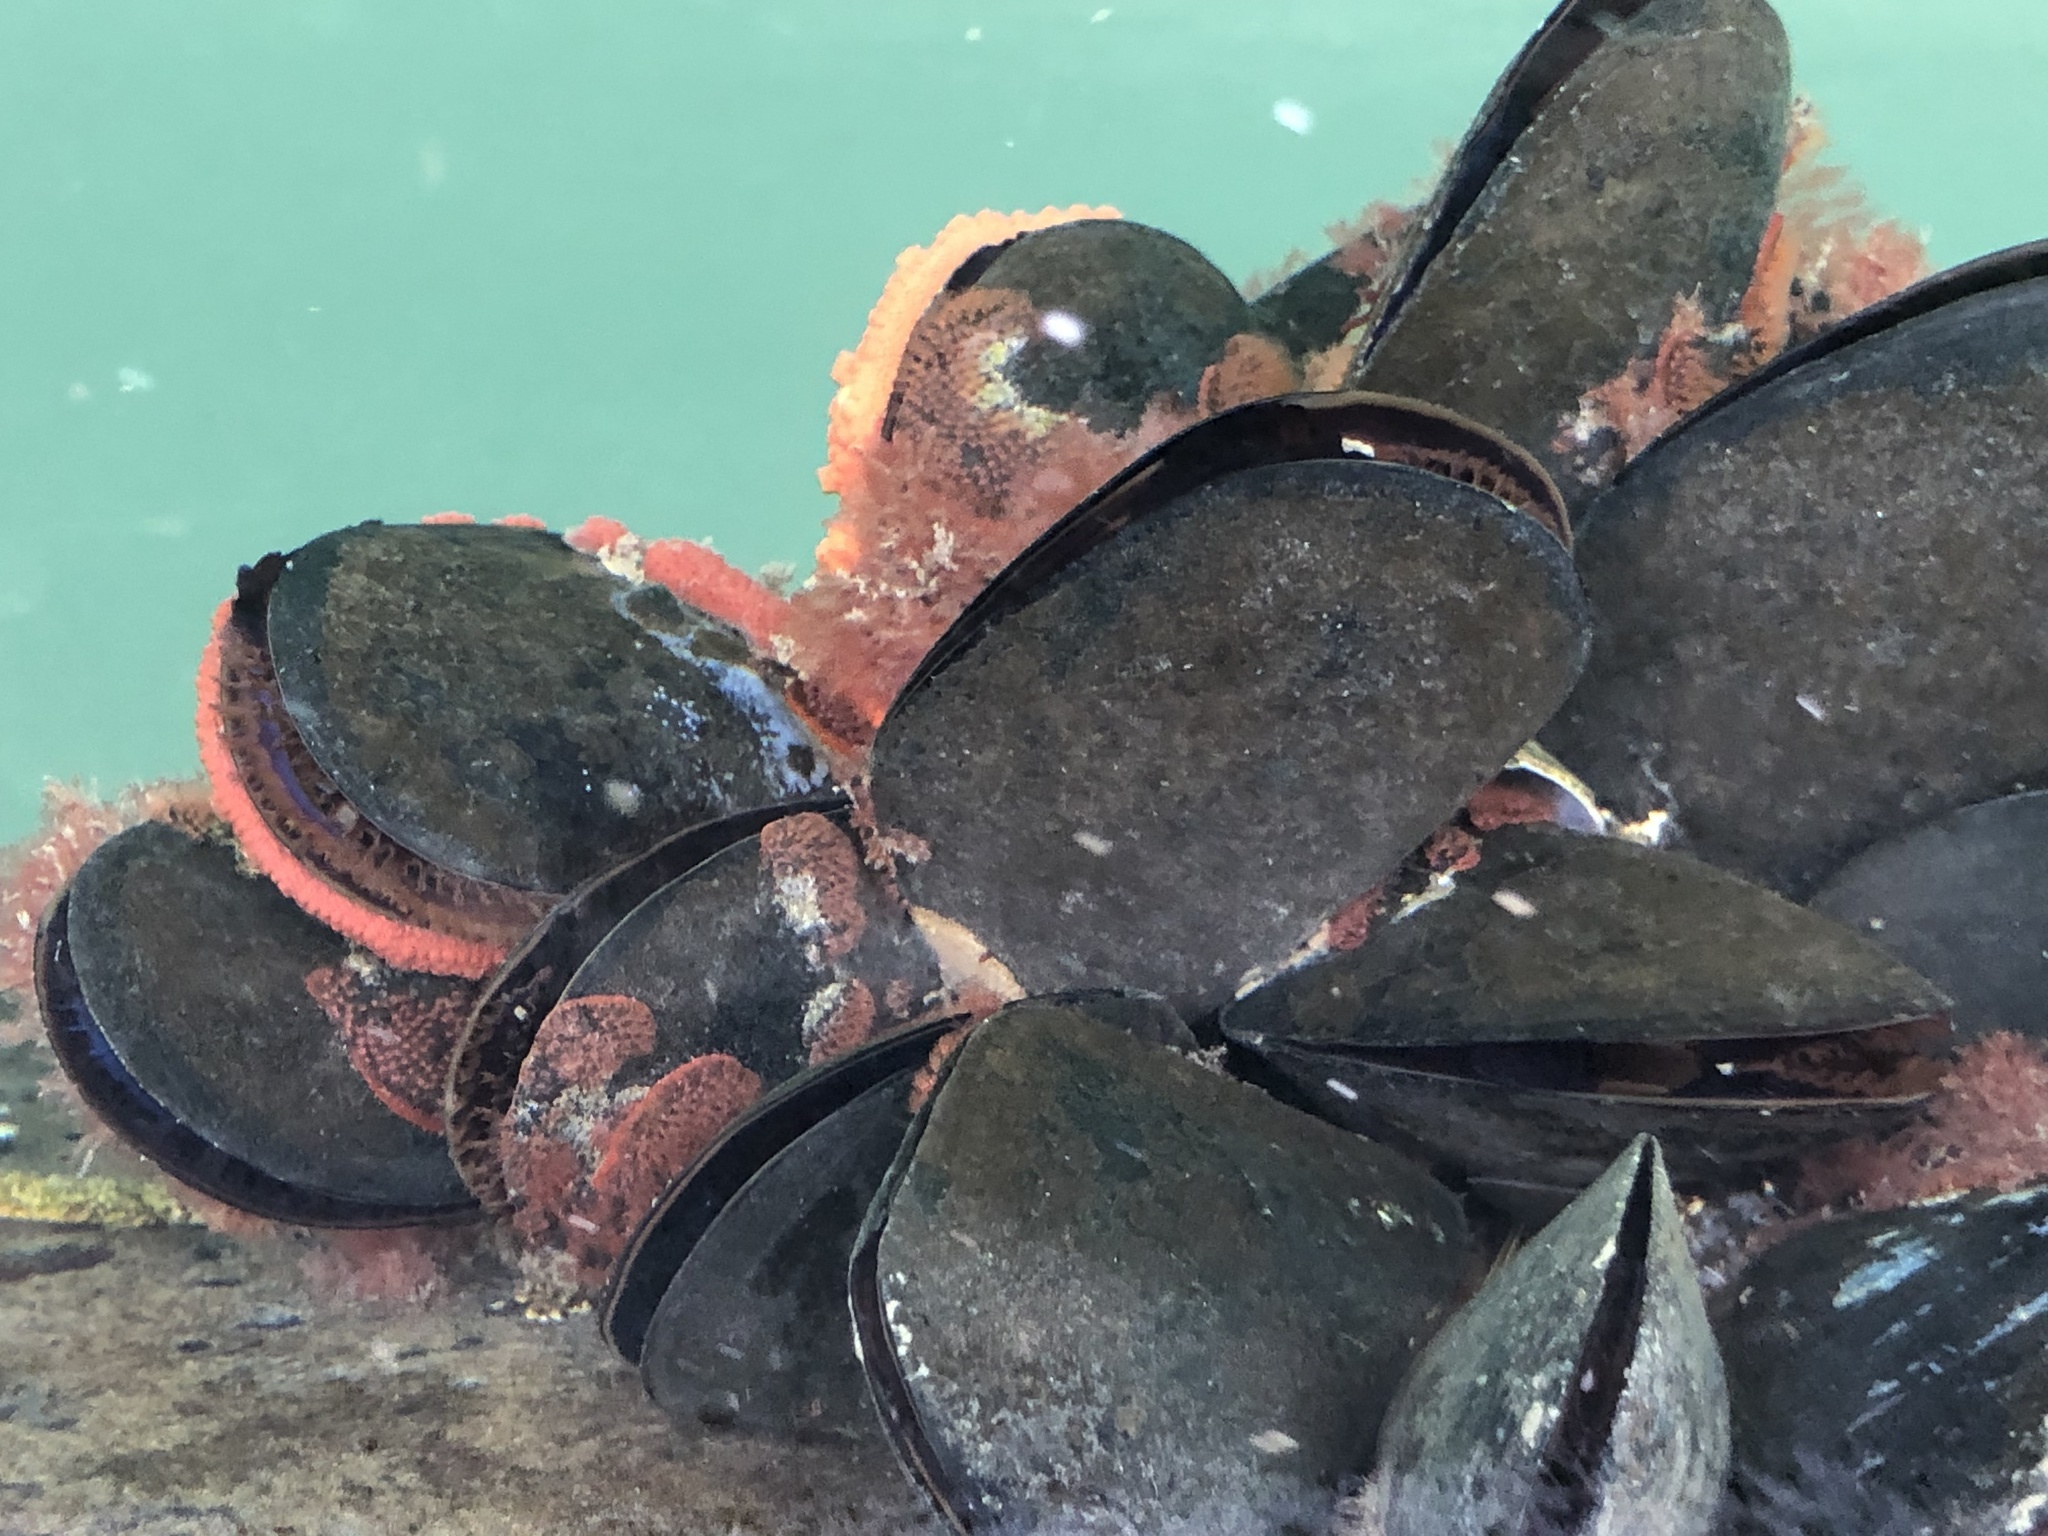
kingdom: Animalia
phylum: Mollusca
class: Bivalvia
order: Mytilida
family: Mytilidae
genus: Mytilus
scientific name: Mytilus
